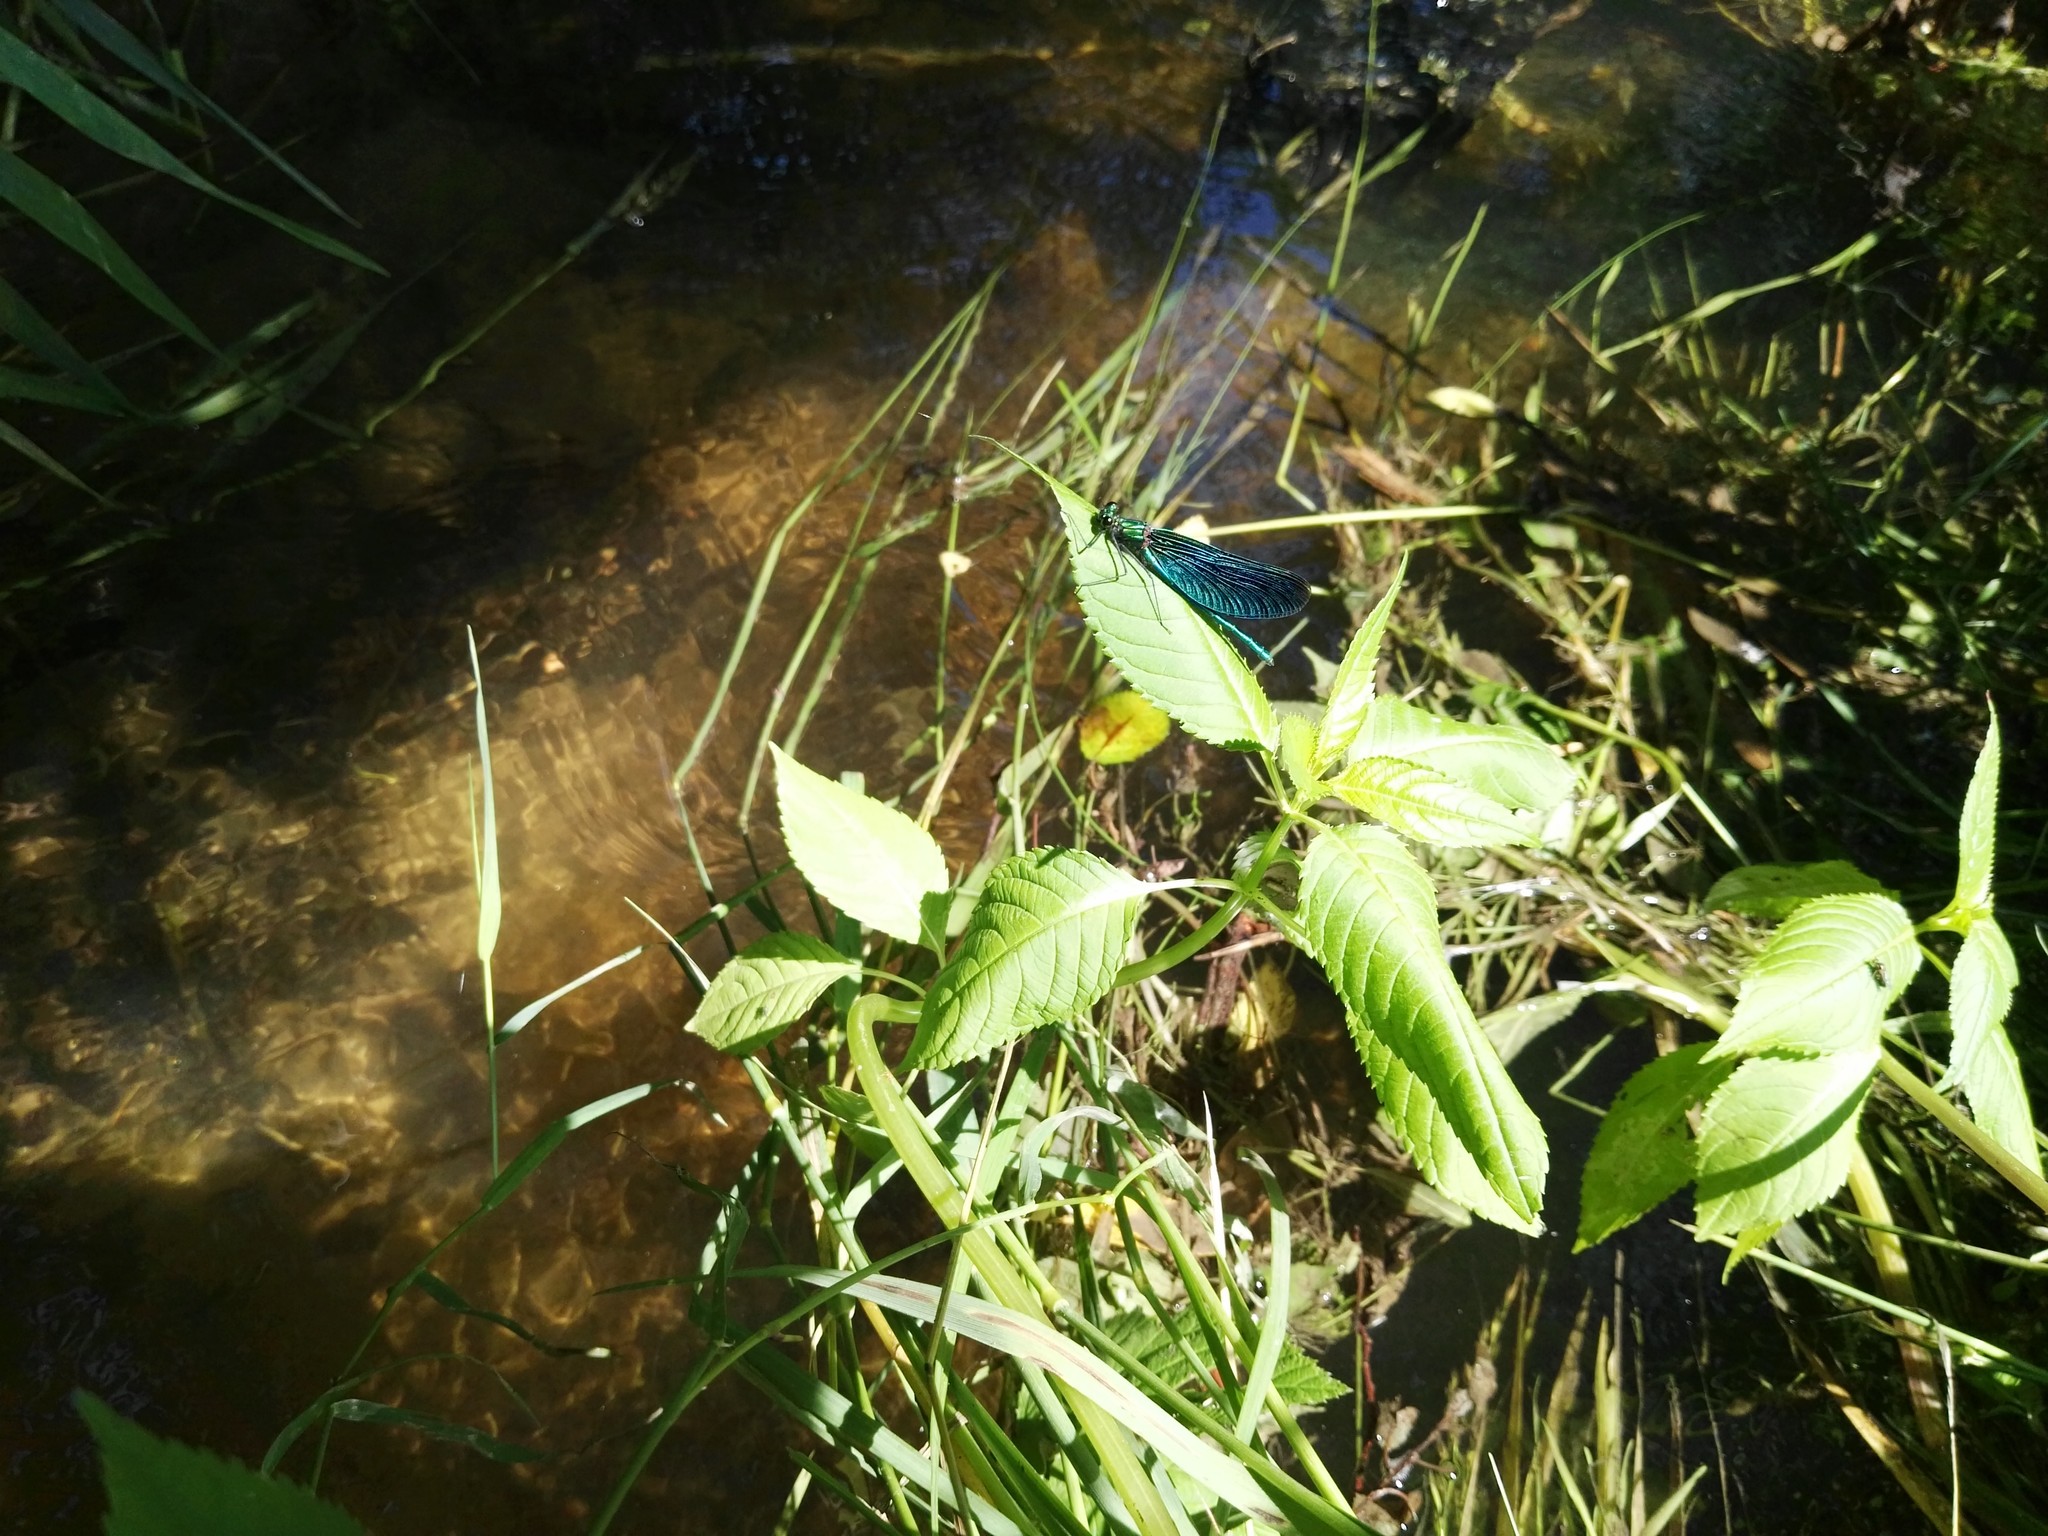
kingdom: Animalia
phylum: Arthropoda
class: Insecta
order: Odonata
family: Calopterygidae
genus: Calopteryx
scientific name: Calopteryx virgo
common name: Beautiful demoiselle
